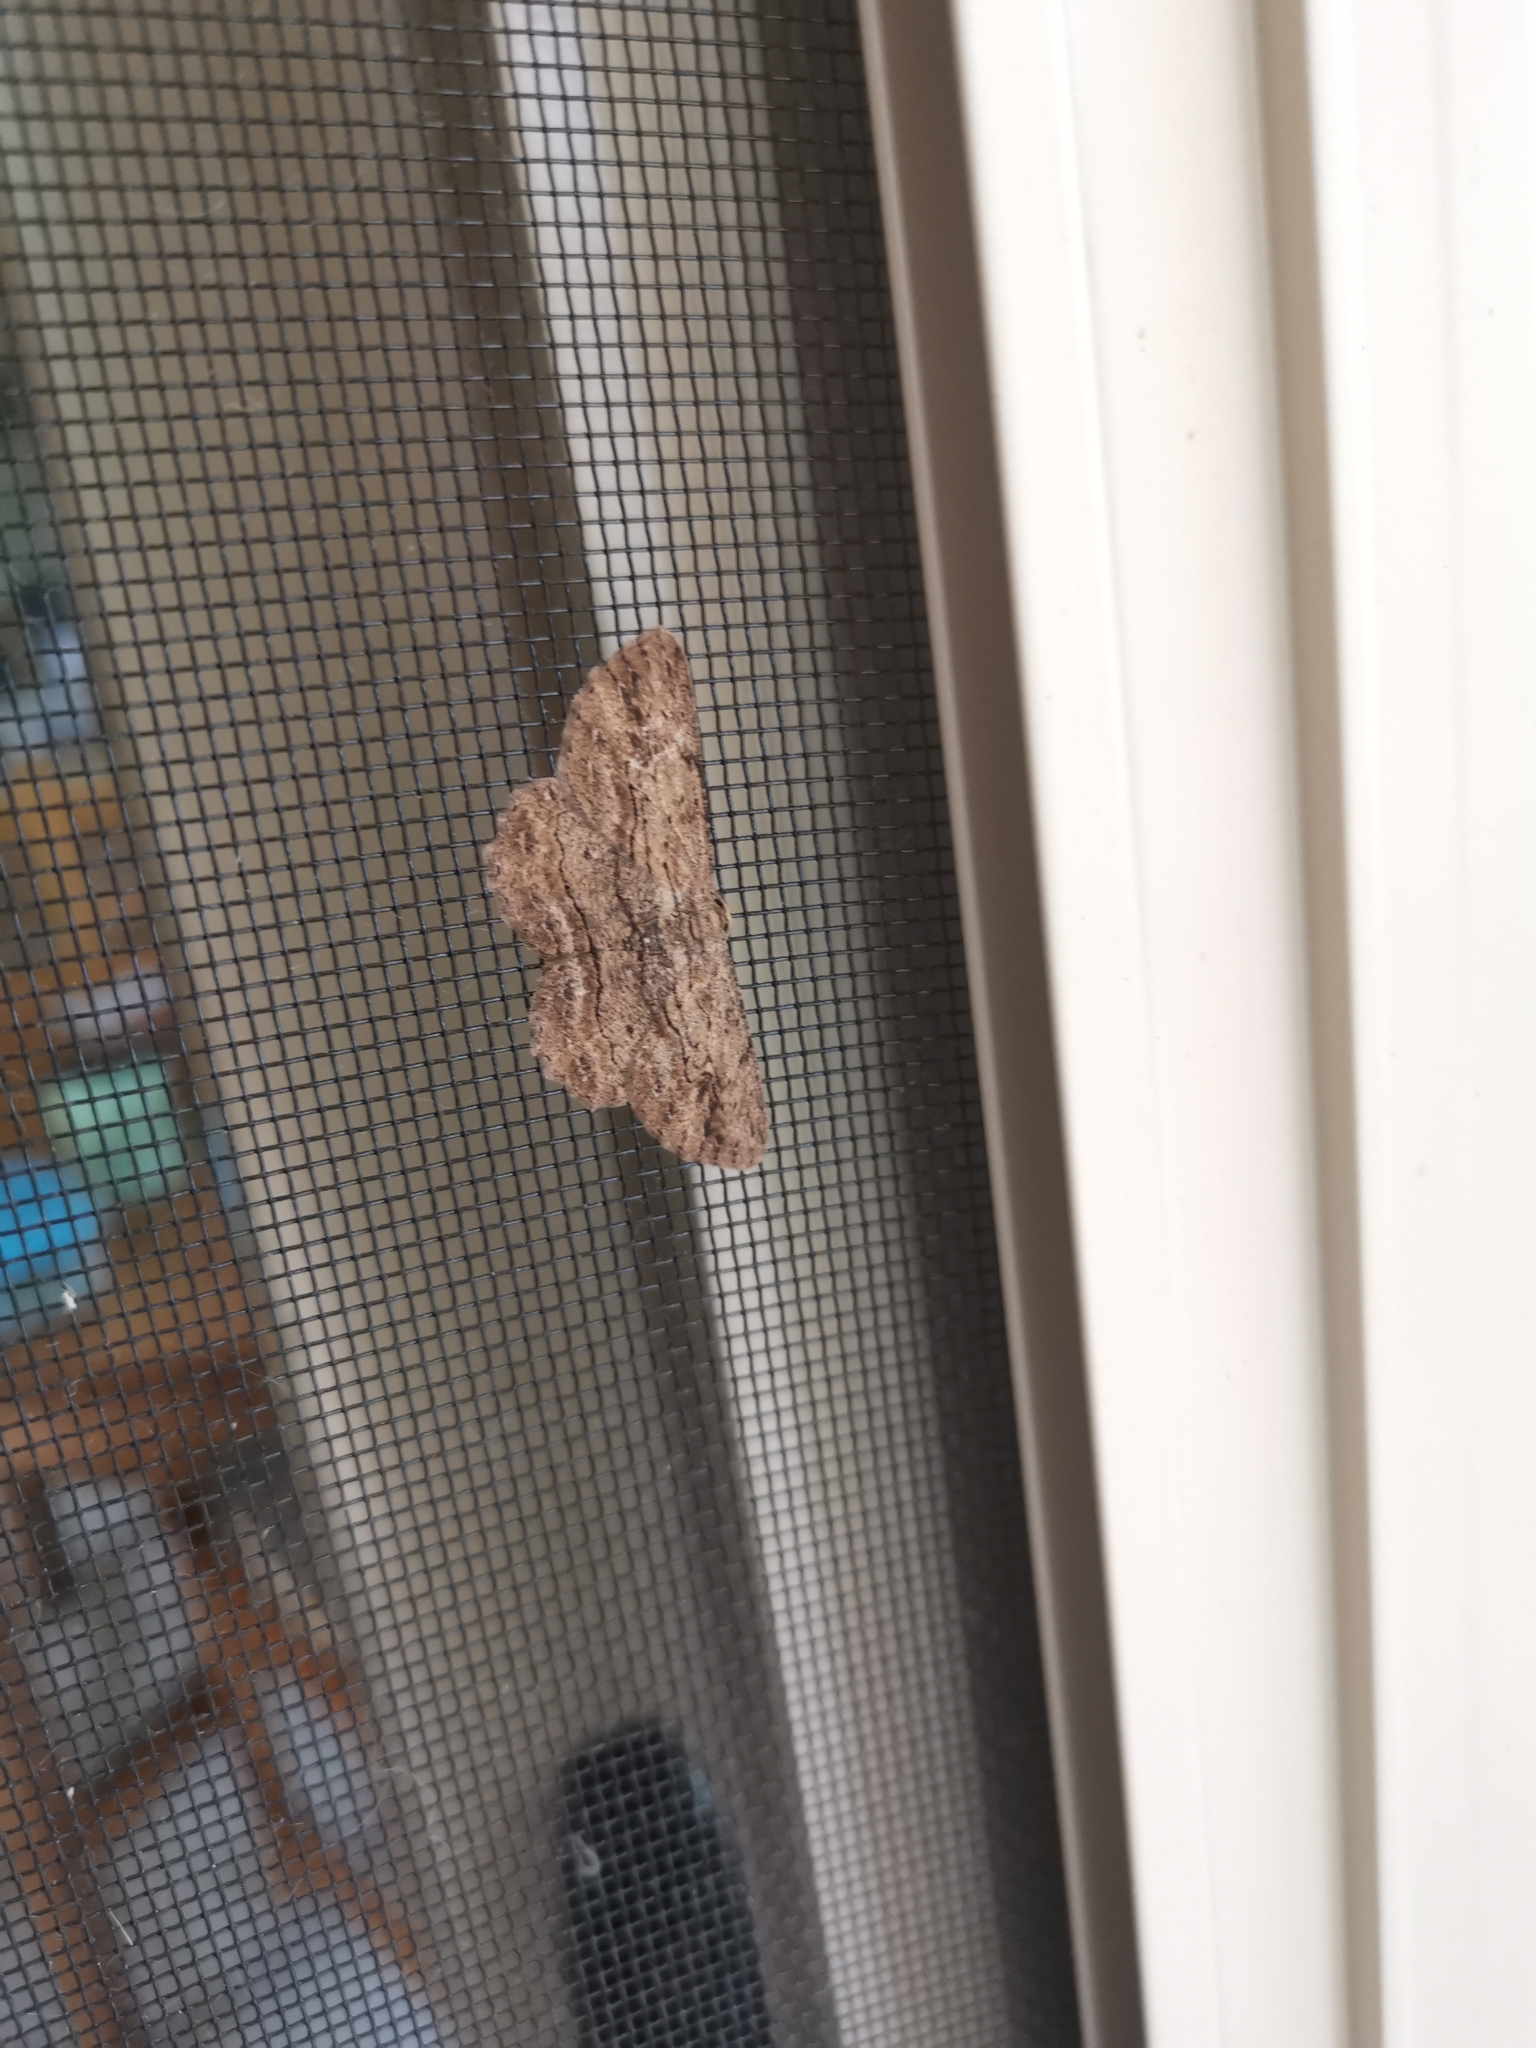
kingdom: Animalia
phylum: Arthropoda
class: Insecta
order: Lepidoptera
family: Geometridae
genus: Ectropis
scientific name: Ectropis excursaria
